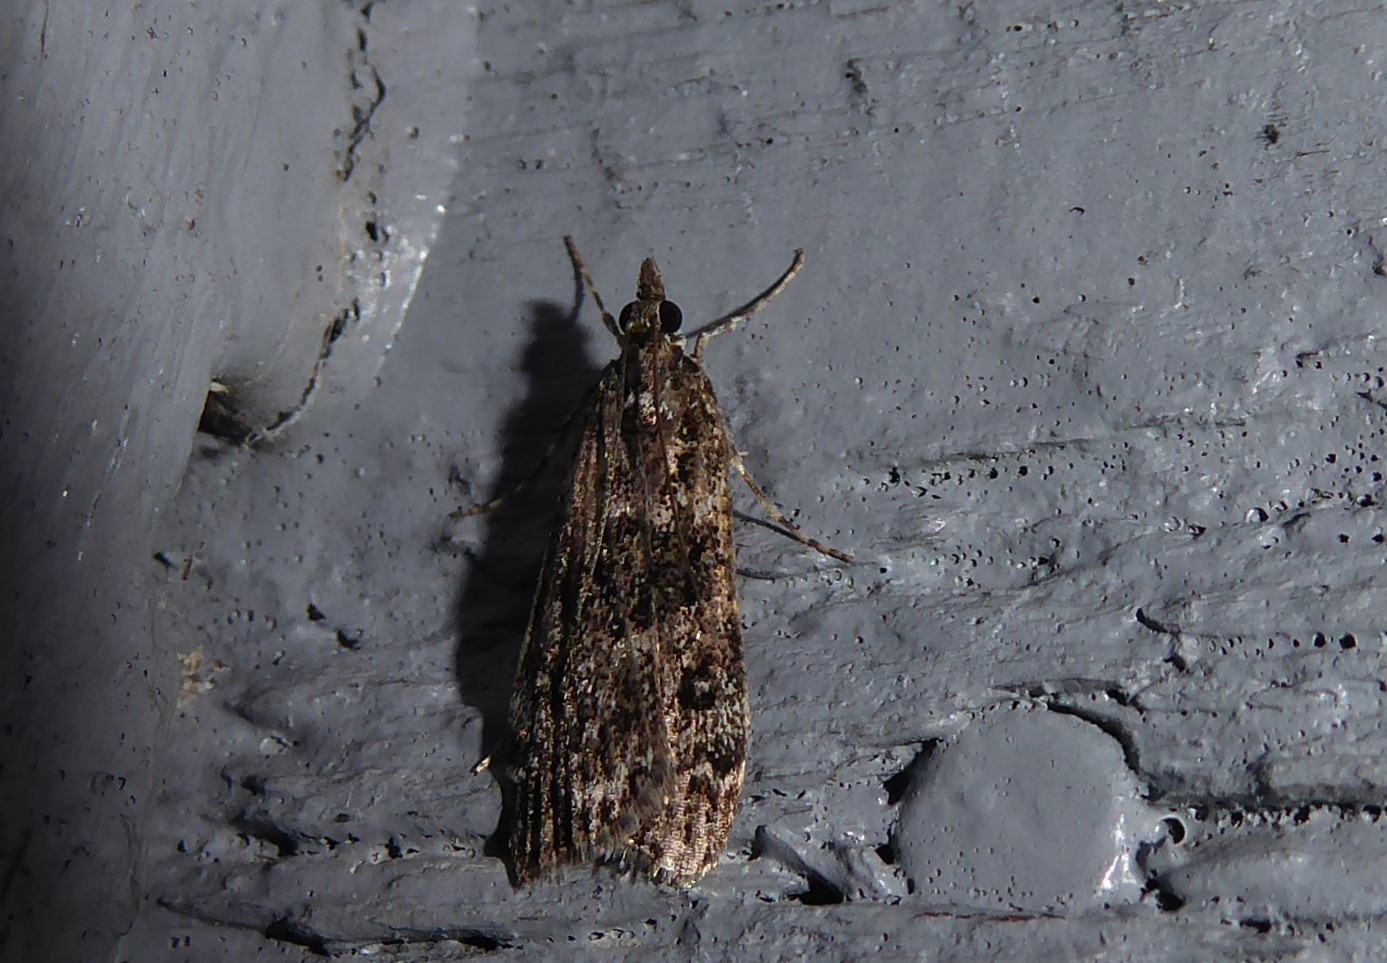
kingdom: Animalia
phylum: Arthropoda
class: Insecta
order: Lepidoptera
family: Crambidae
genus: Eudonia
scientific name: Eudonia philerga
